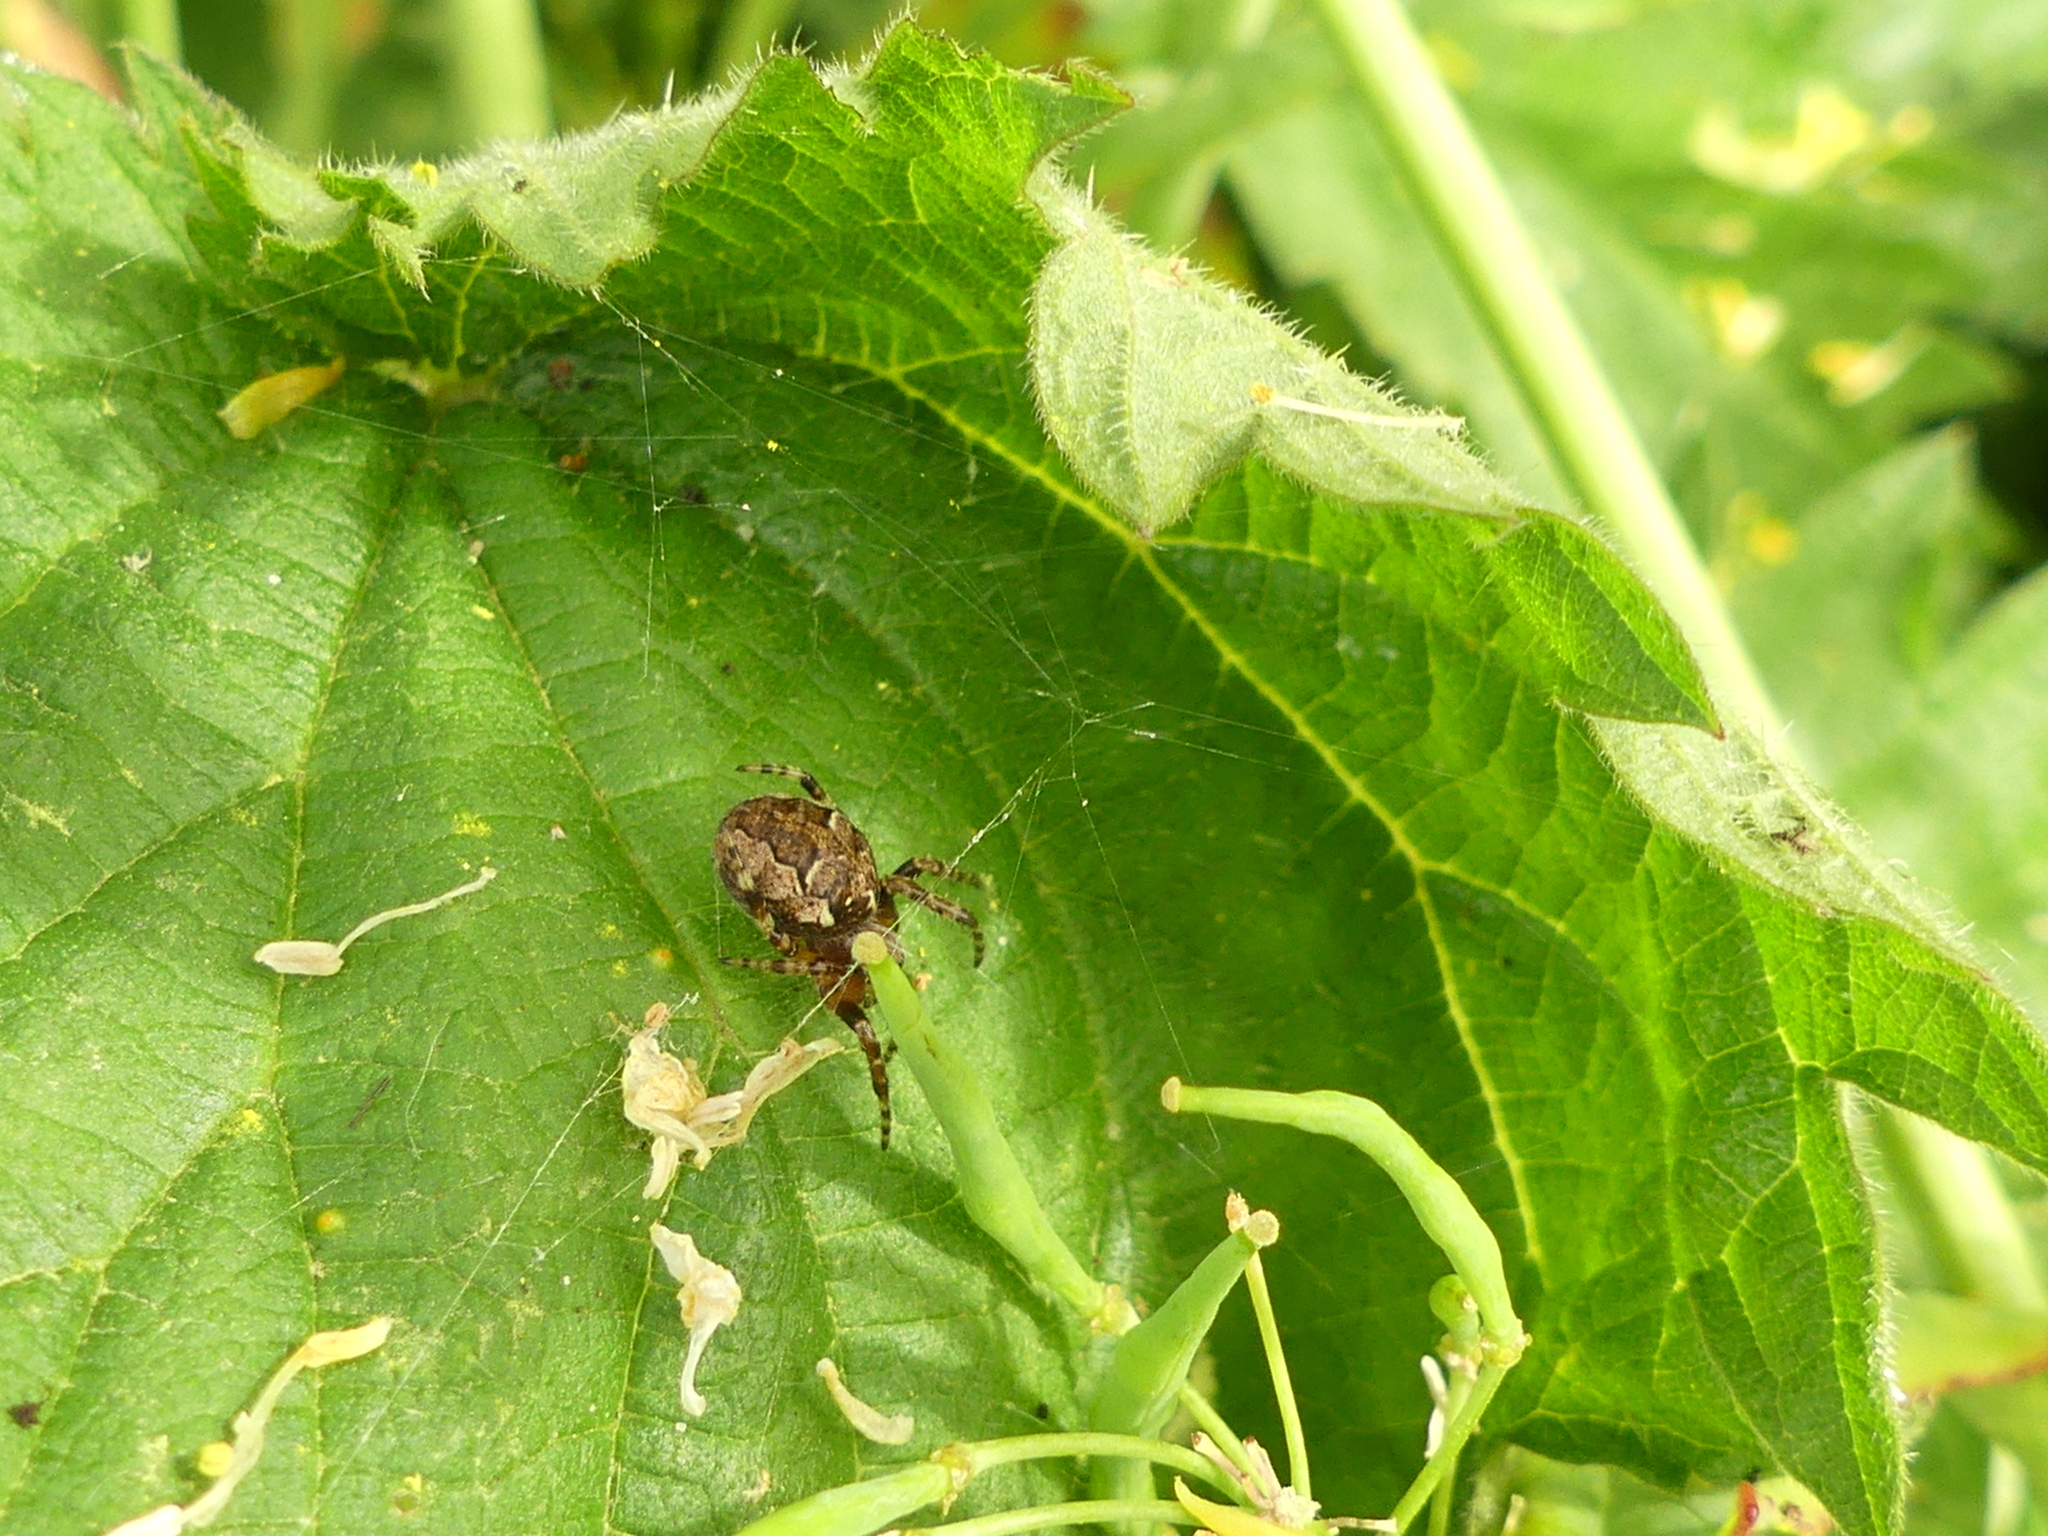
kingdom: Animalia
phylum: Arthropoda
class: Arachnida
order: Araneae
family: Araneidae
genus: Larinioides
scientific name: Larinioides patagiatus
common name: Ornamental orbweaver
